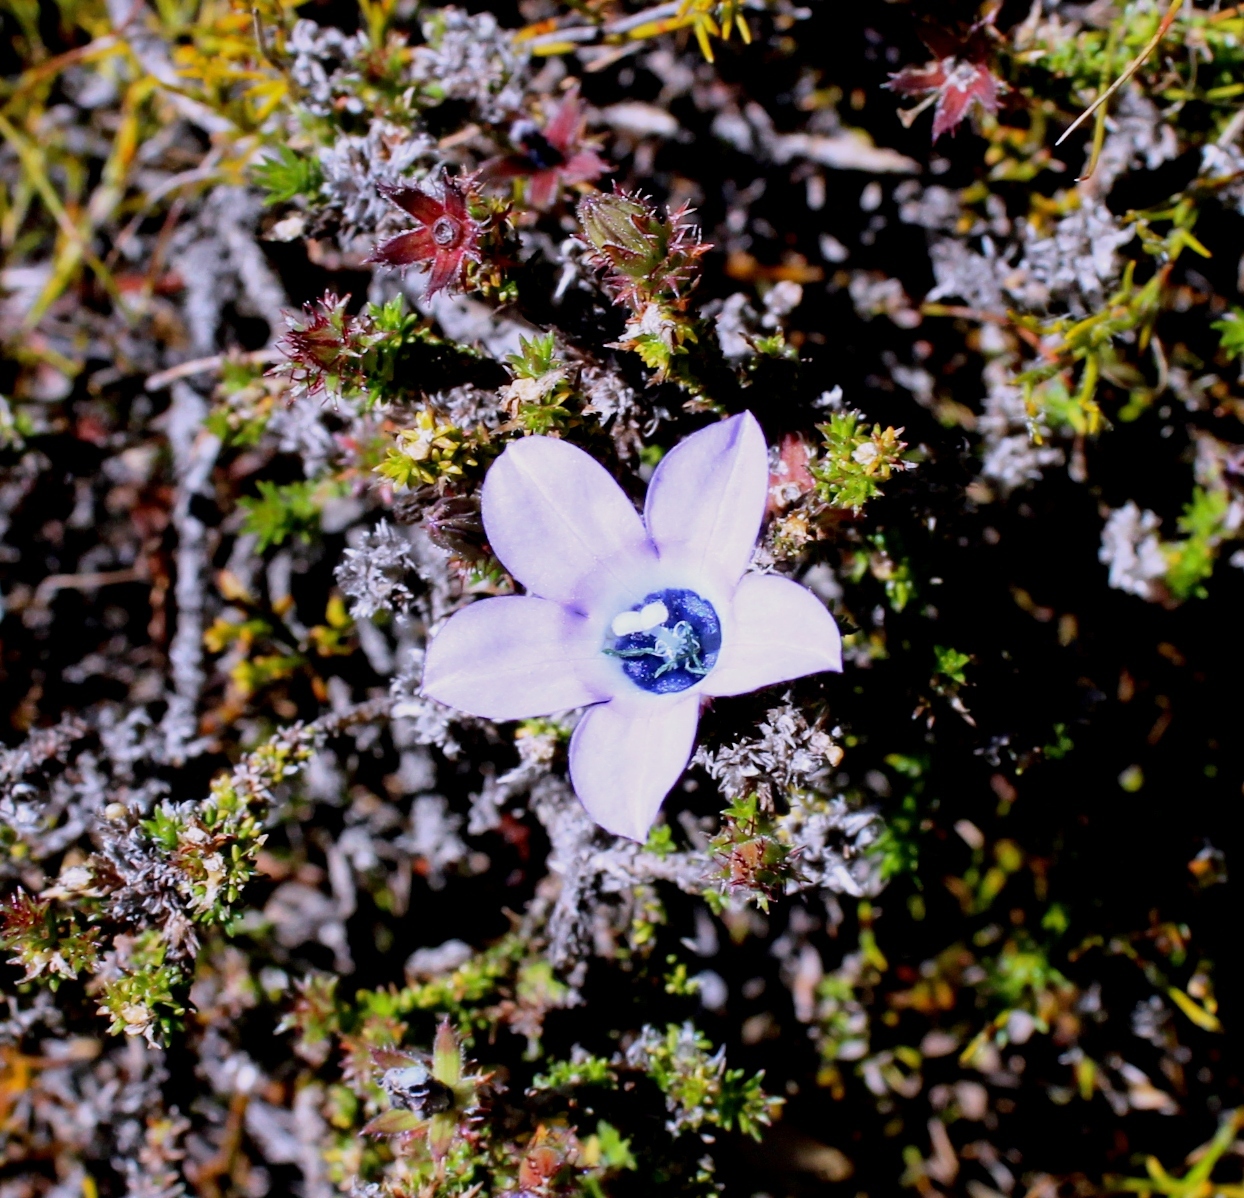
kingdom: Plantae
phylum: Tracheophyta
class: Magnoliopsida
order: Asterales
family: Campanulaceae
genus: Roella
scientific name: Roella triflora
